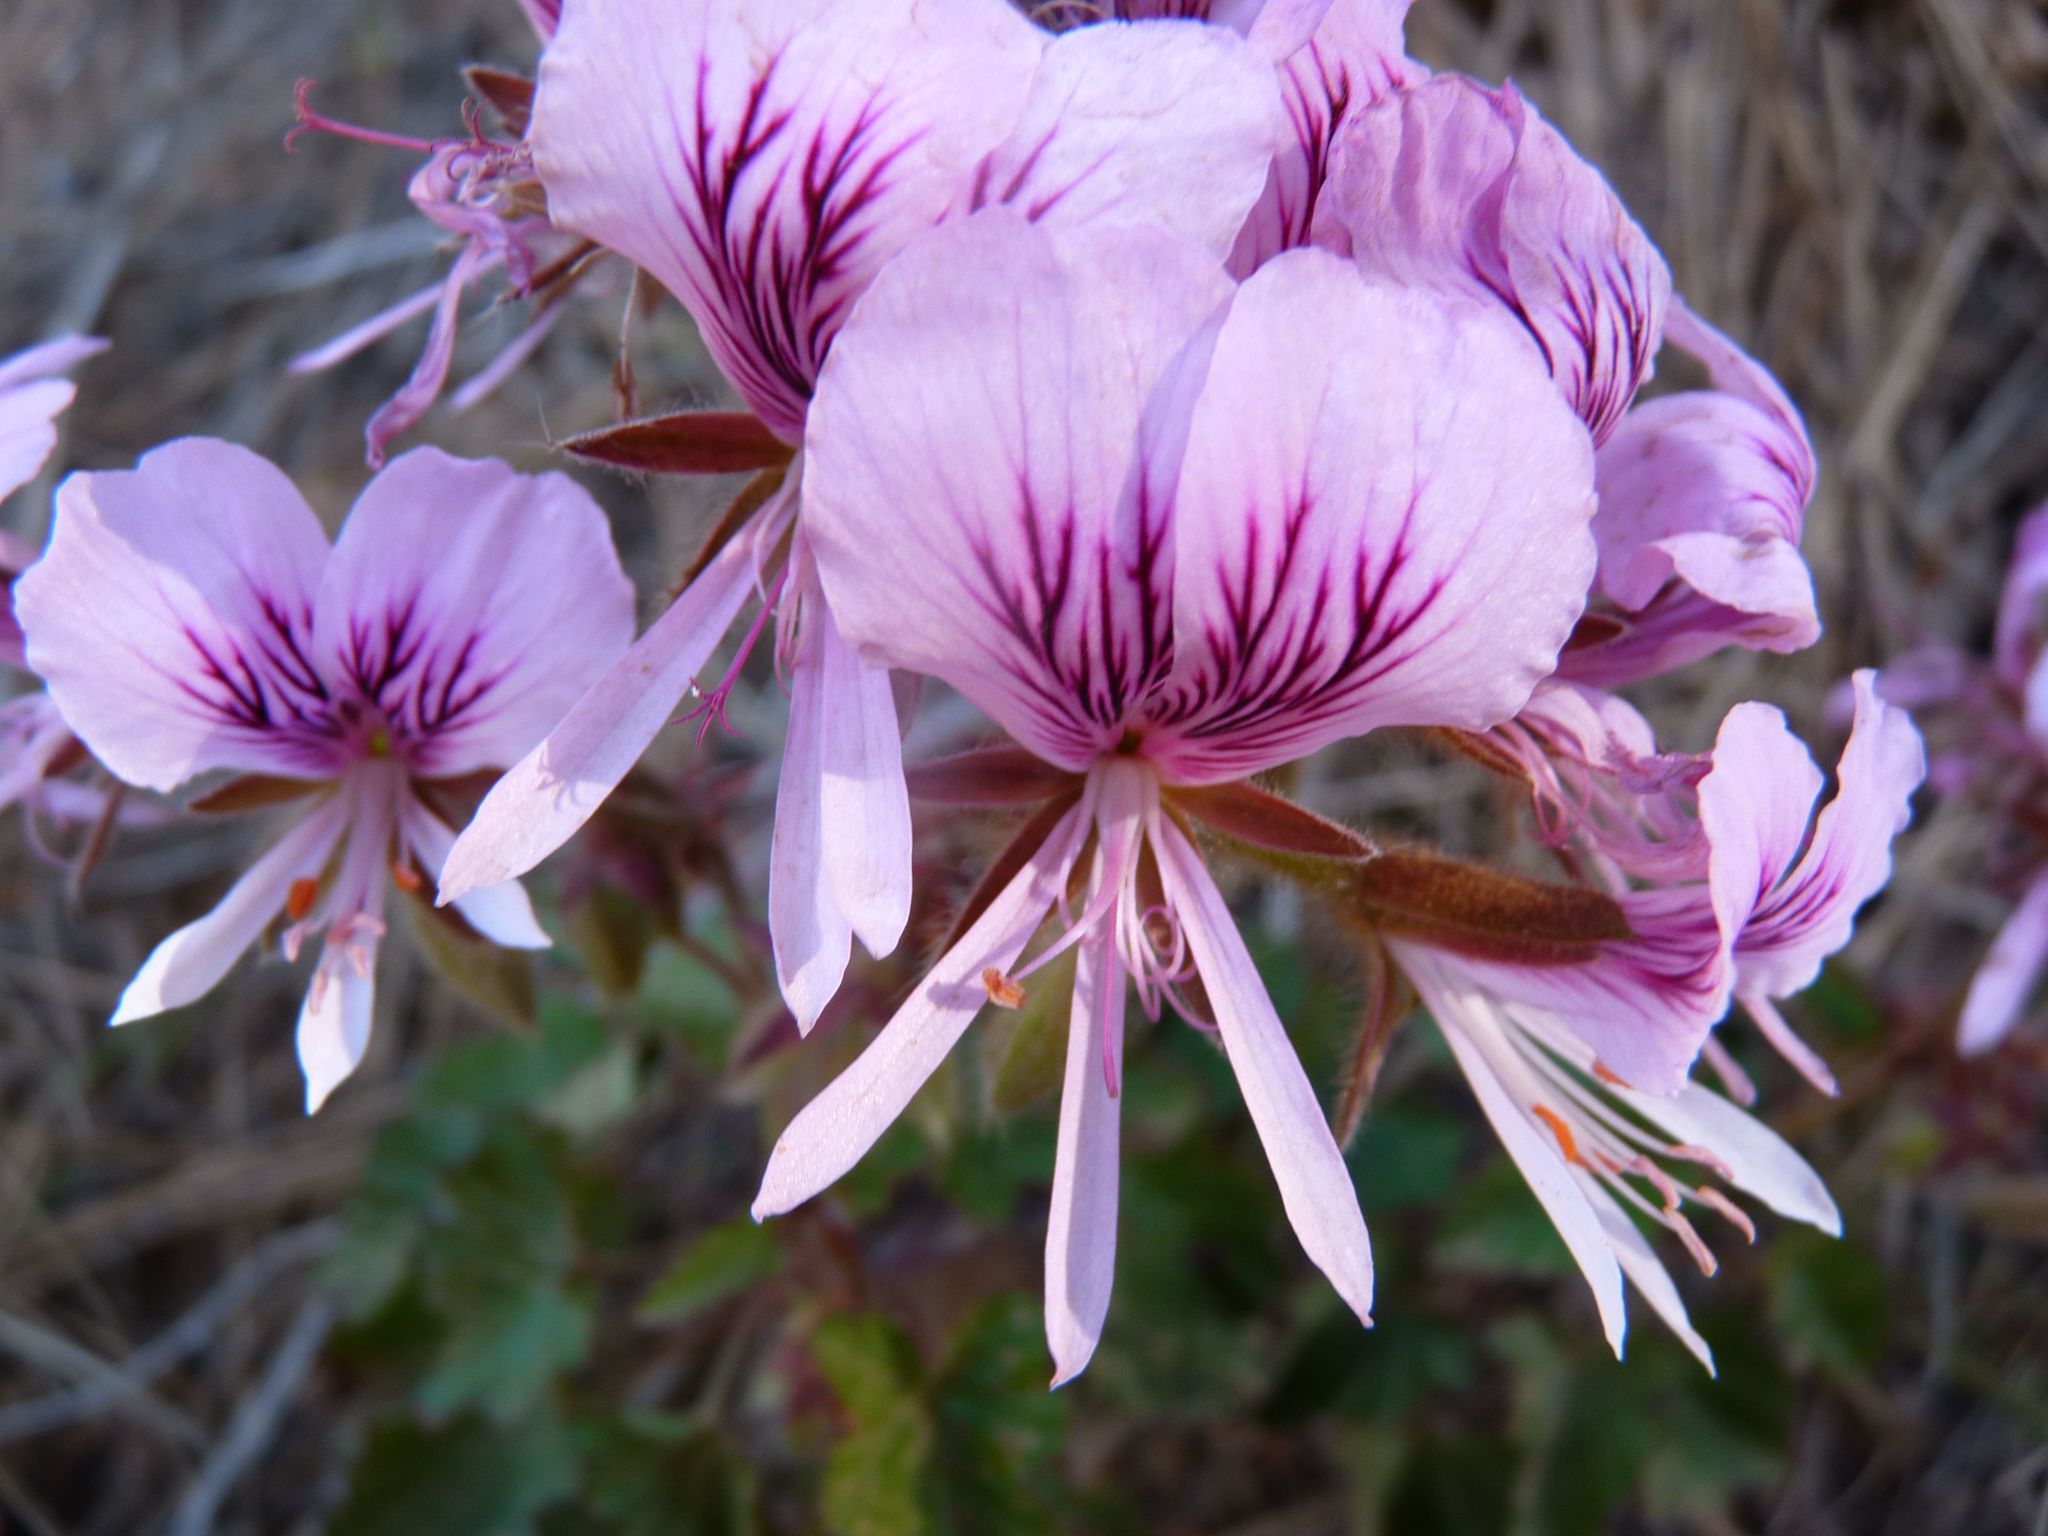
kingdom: Plantae
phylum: Tracheophyta
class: Magnoliopsida
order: Geraniales
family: Geraniaceae
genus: Pelargonium
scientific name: Pelargonium cordifolium
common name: Heart-leaf pelargonium
